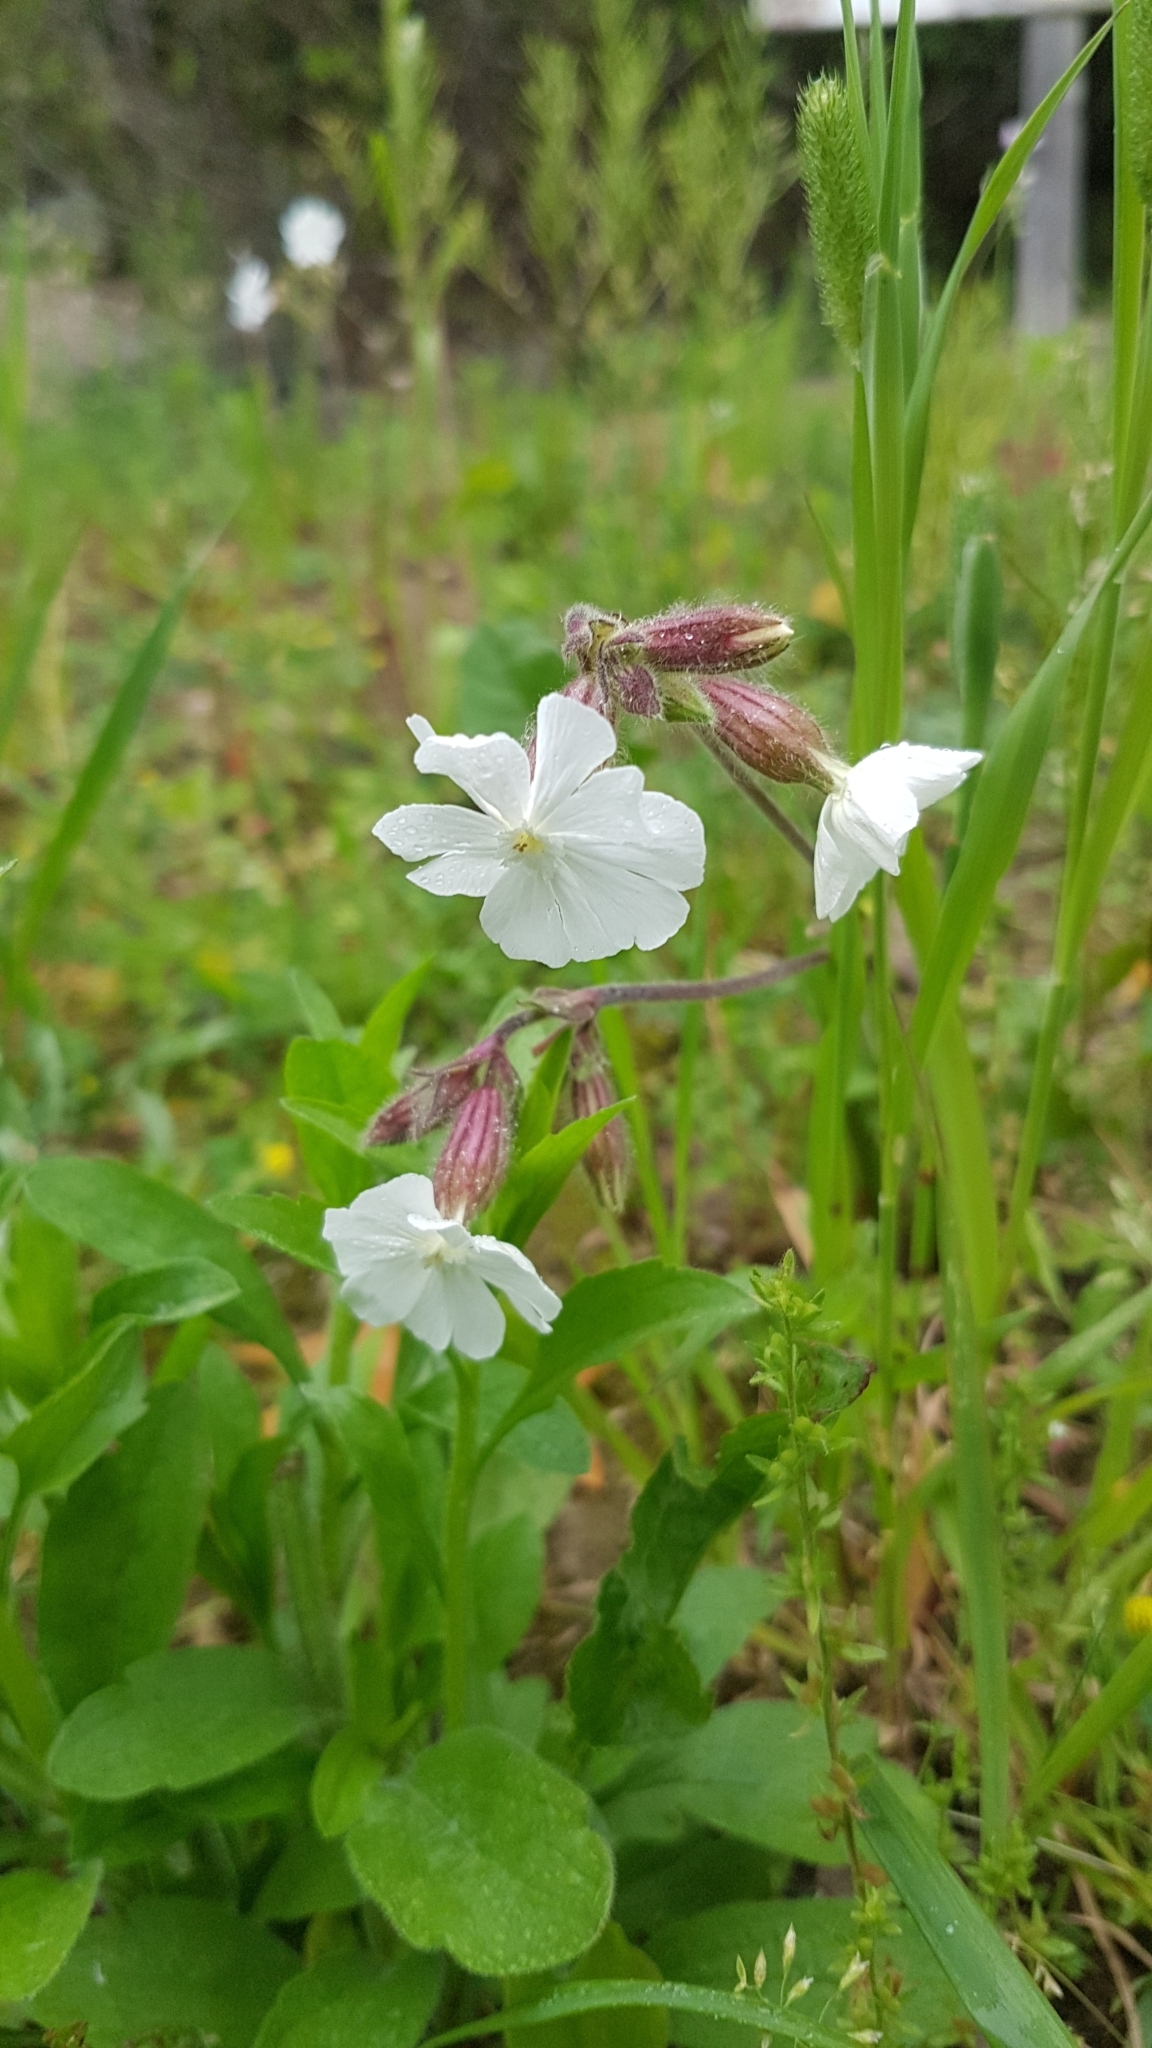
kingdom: Plantae
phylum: Tracheophyta
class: Magnoliopsida
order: Caryophyllales
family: Caryophyllaceae
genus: Silene
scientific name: Silene latifolia
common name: White campion
